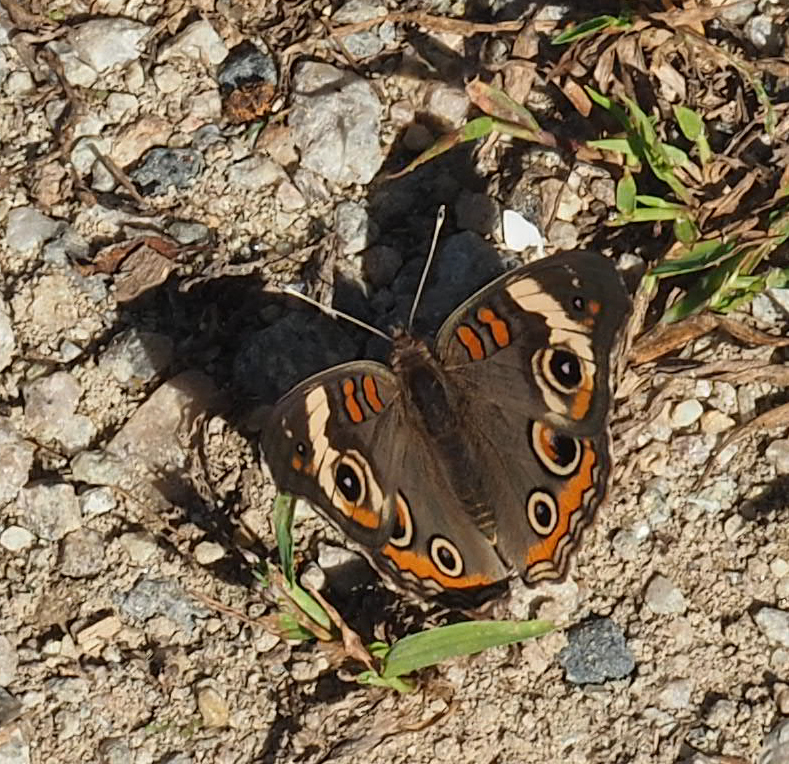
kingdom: Animalia
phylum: Arthropoda
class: Insecta
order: Lepidoptera
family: Nymphalidae
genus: Junonia
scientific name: Junonia coenia
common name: Common buckeye
